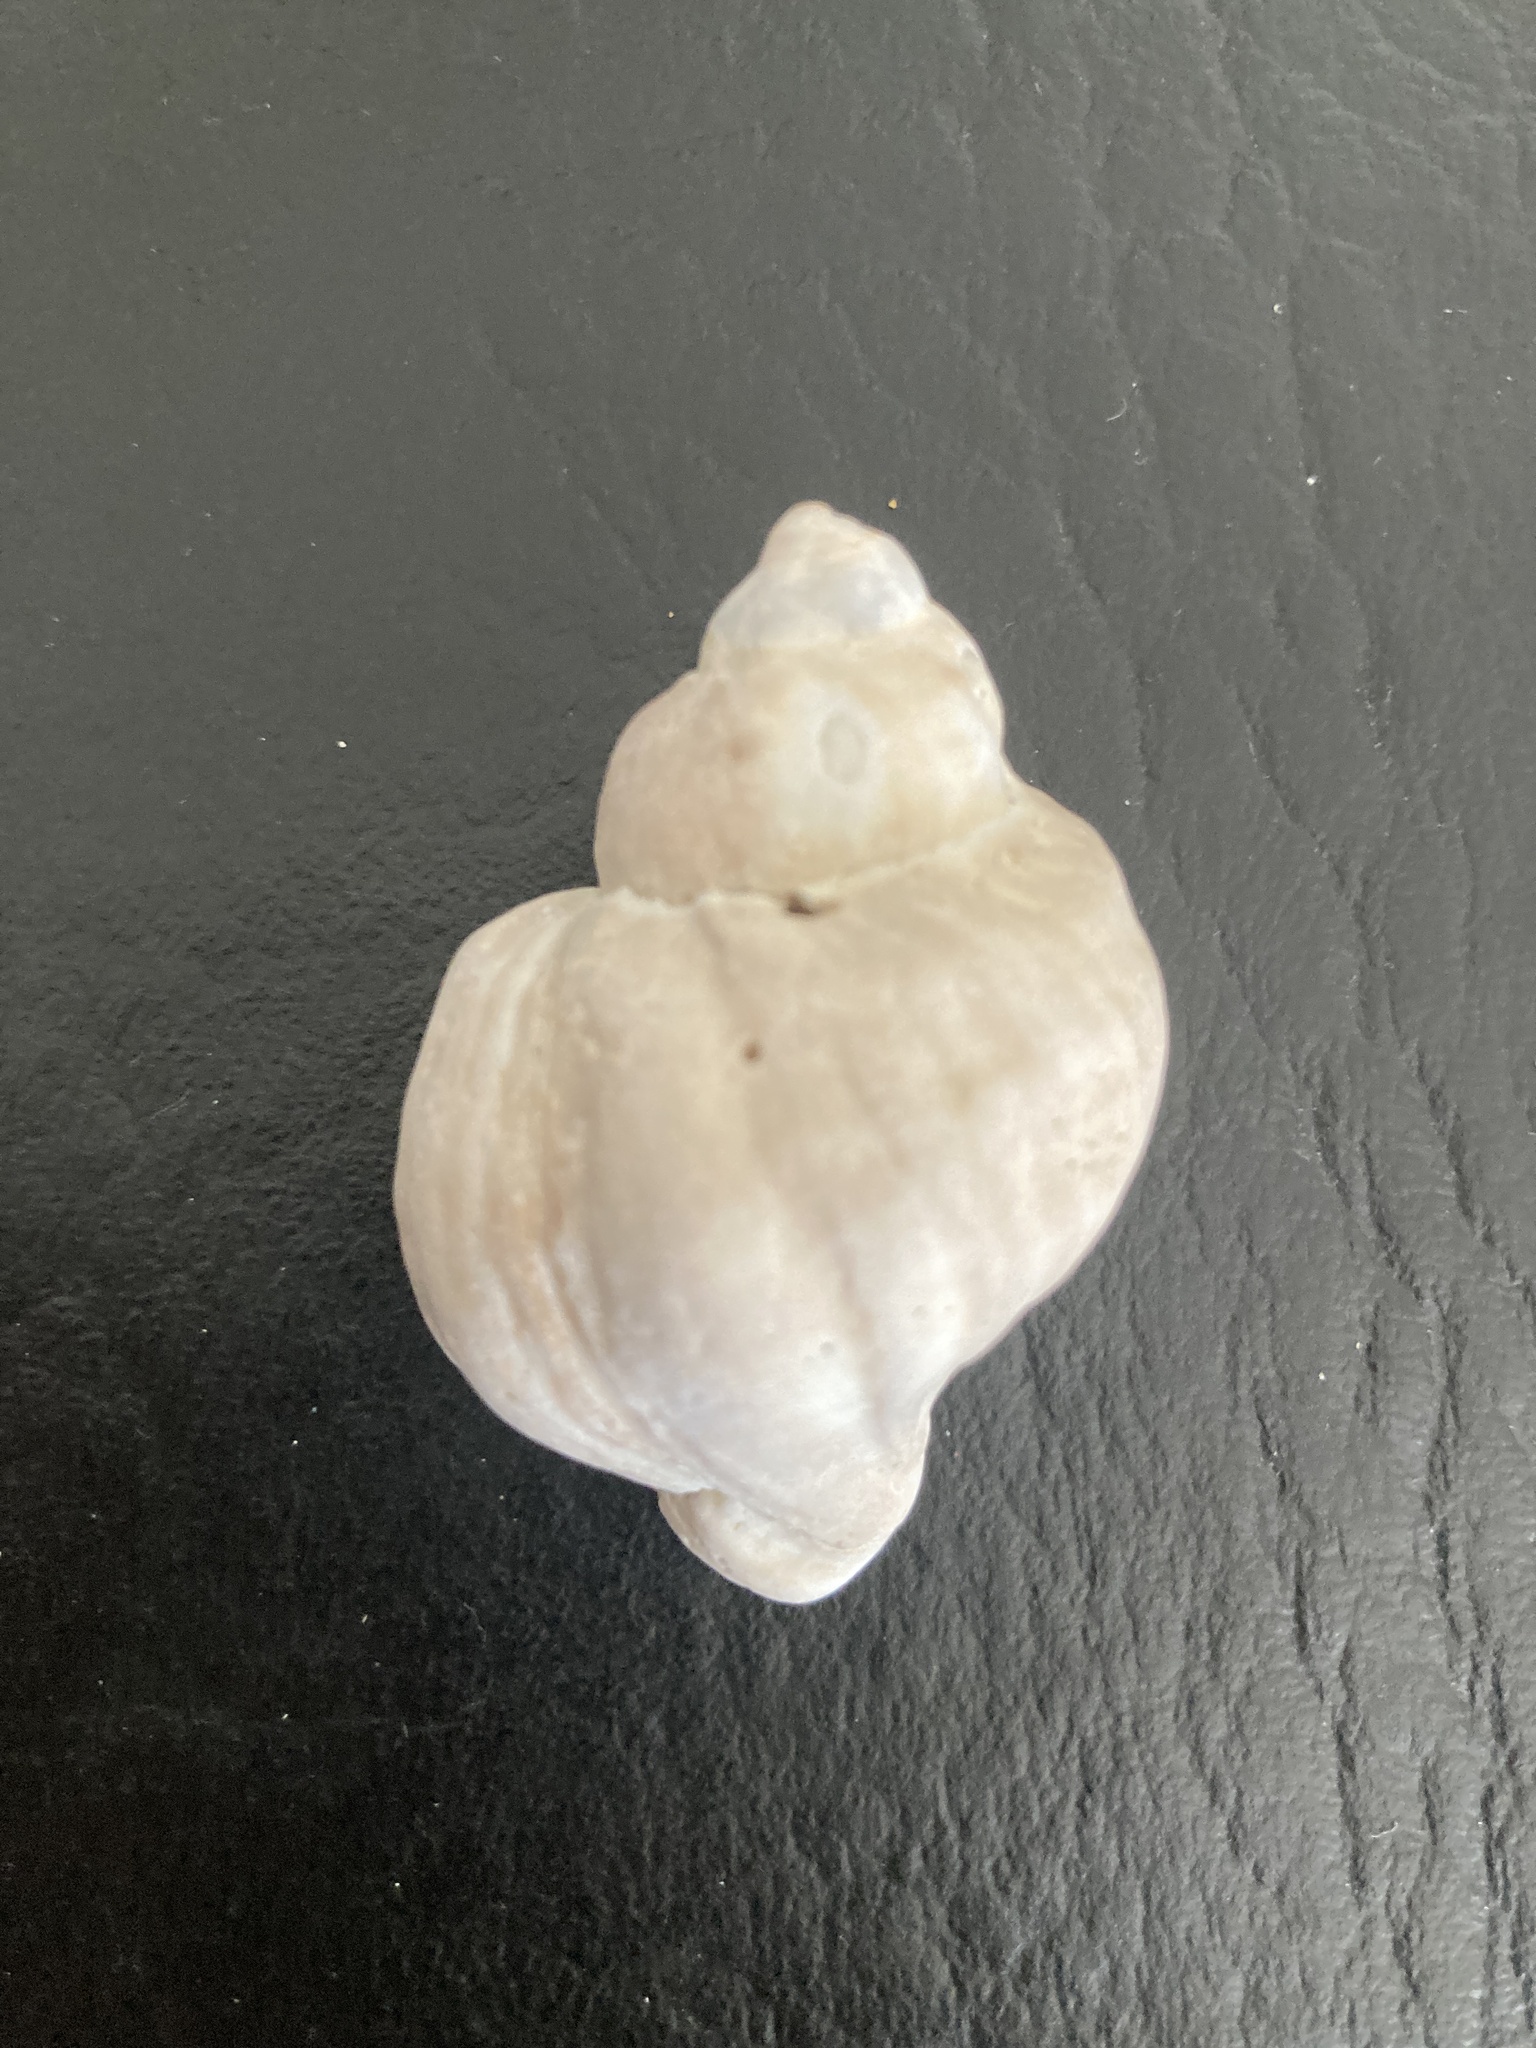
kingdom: Animalia
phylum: Mollusca
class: Gastropoda
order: Neogastropoda
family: Muricidae
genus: Trophon
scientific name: Trophon geversianus
